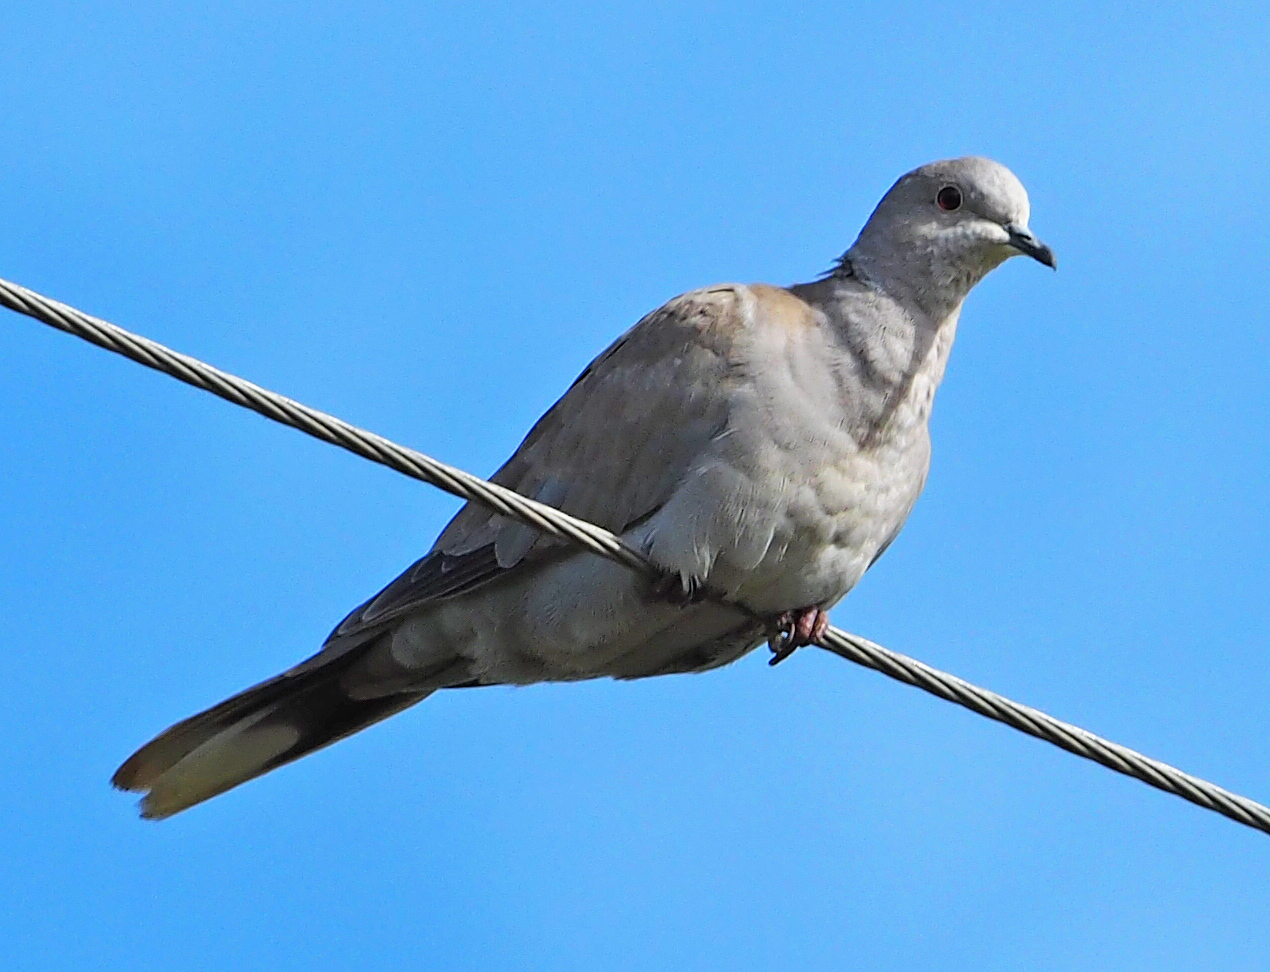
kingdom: Animalia
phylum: Chordata
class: Aves
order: Columbiformes
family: Columbidae
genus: Streptopelia
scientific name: Streptopelia decaocto
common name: Eurasian collared dove
